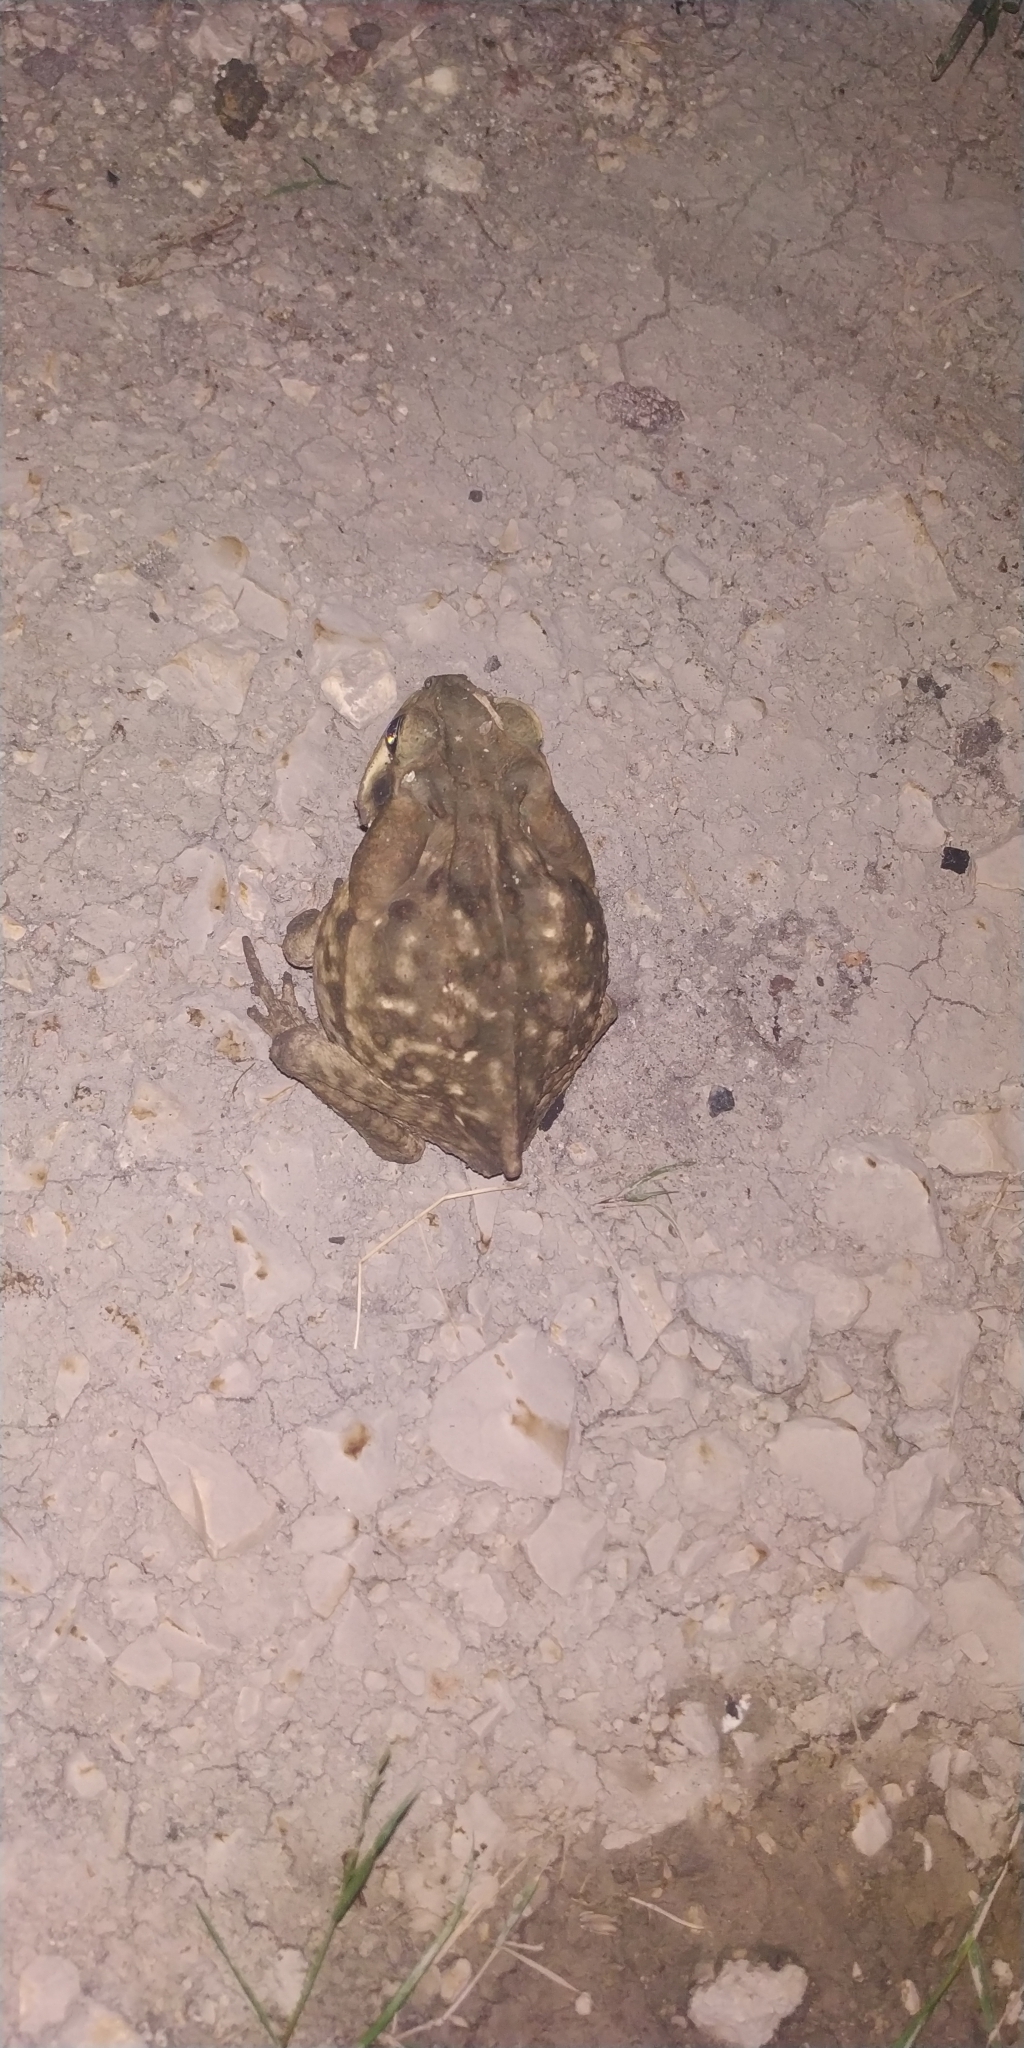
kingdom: Animalia
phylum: Chordata
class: Amphibia
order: Anura
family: Bufonidae
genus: Rhinella
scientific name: Rhinella horribilis
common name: Mesoamerican cane toad
